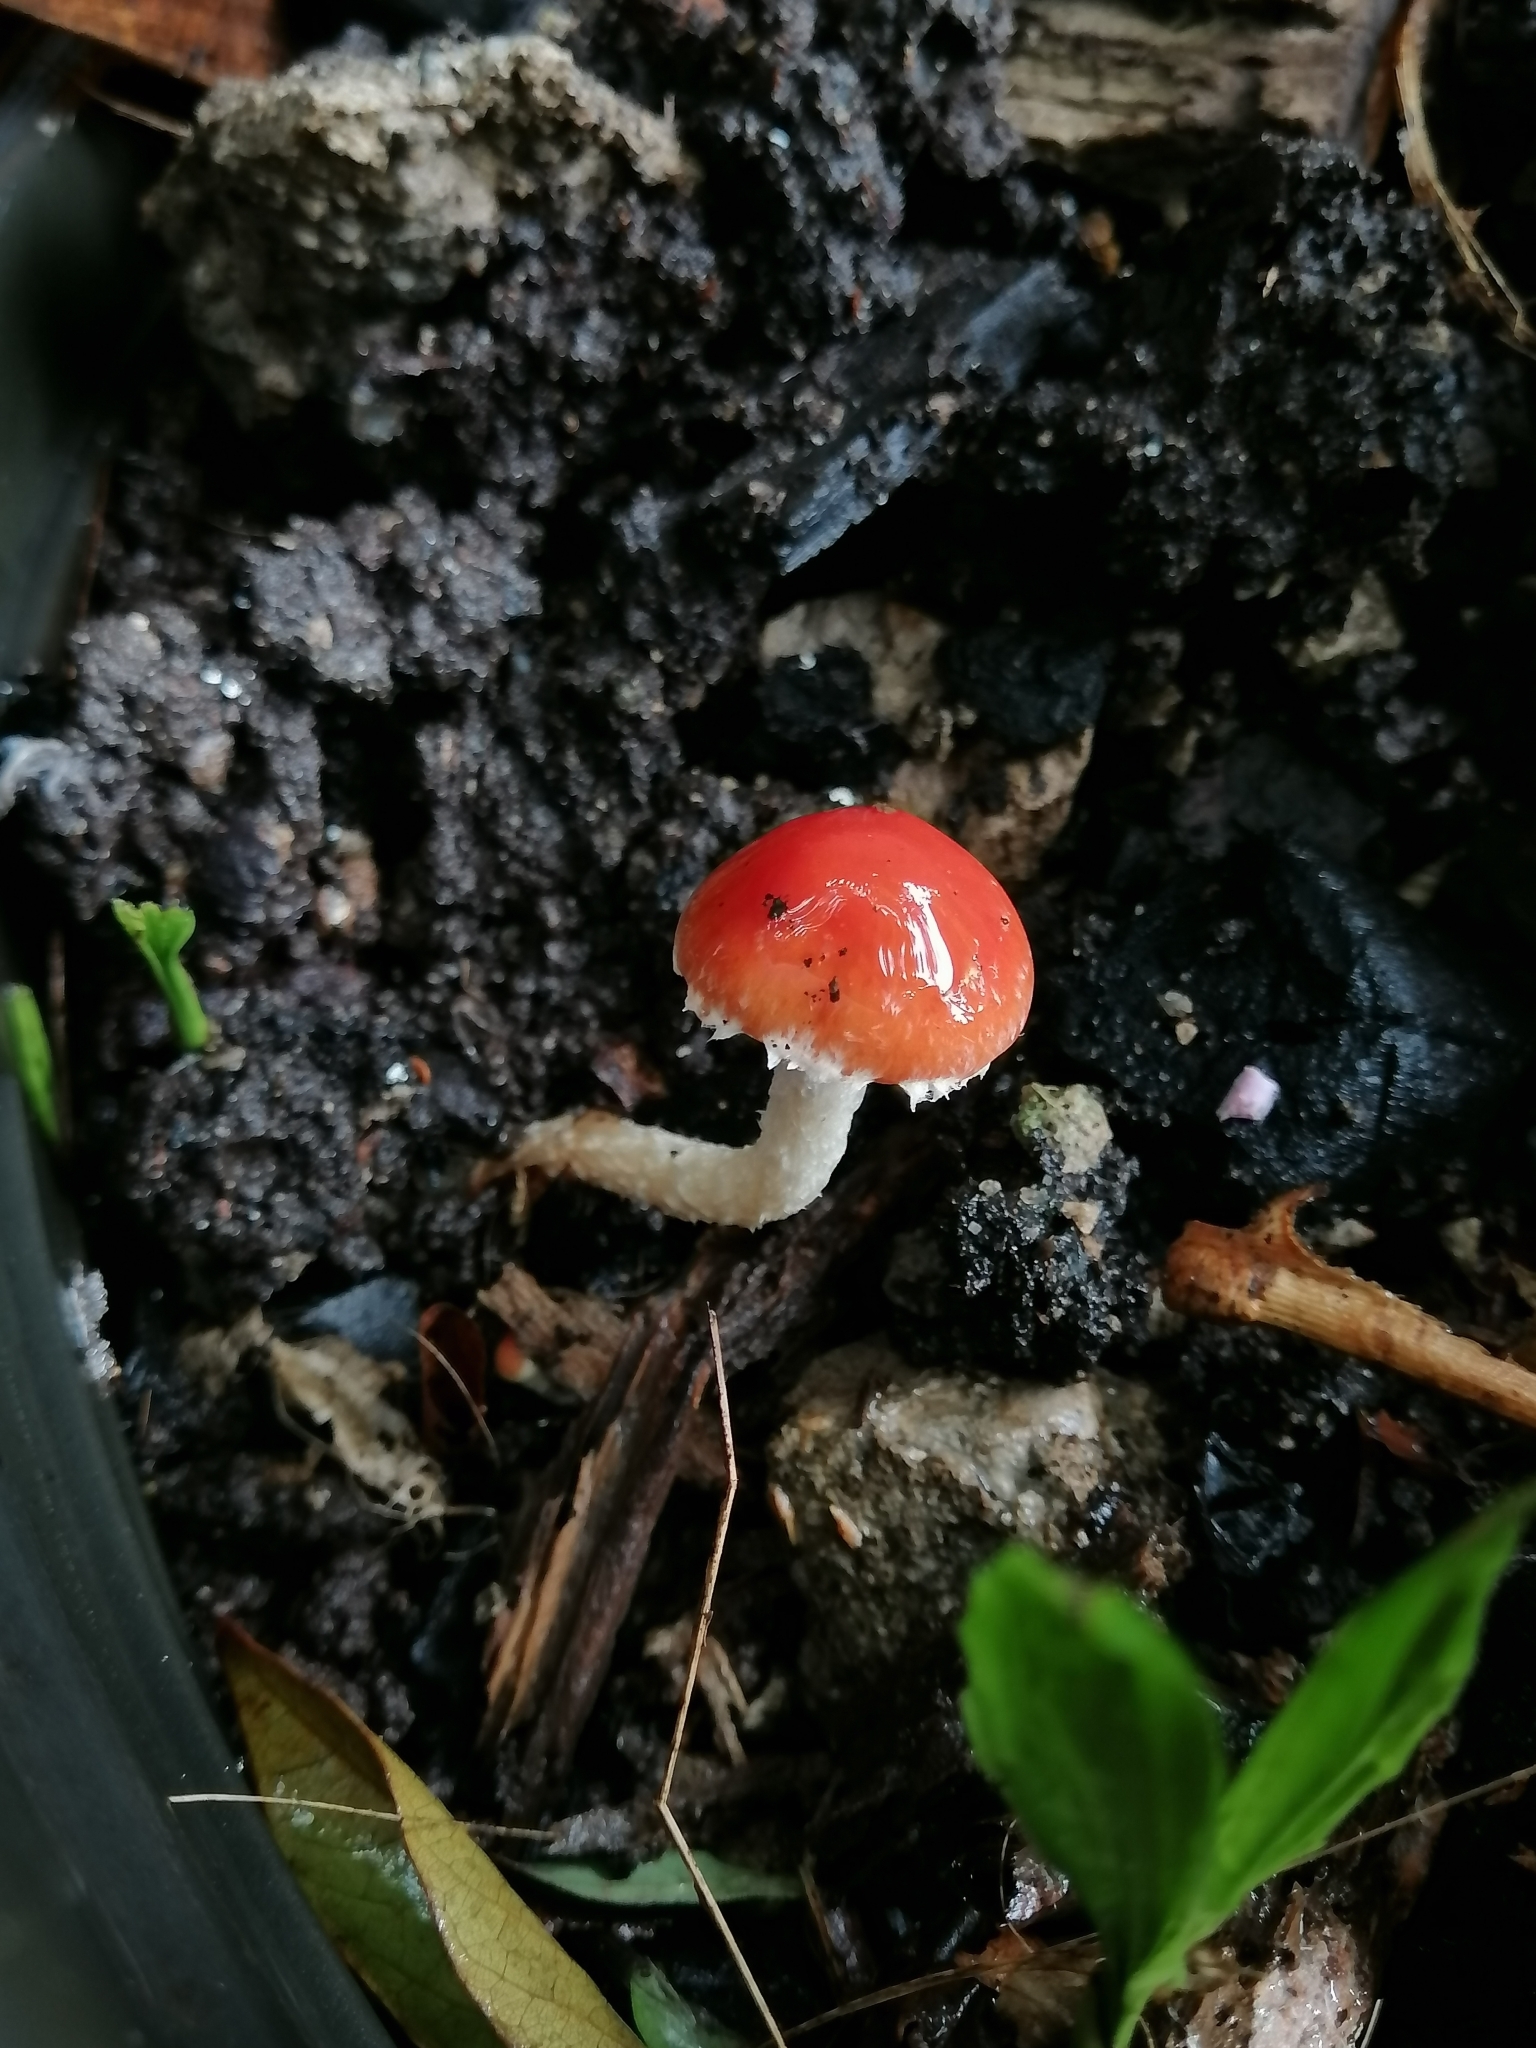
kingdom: Fungi
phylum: Basidiomycota
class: Agaricomycetes
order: Agaricales
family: Strophariaceae
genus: Leratiomyces
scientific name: Leratiomyces ceres
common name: Redlead roundhead
